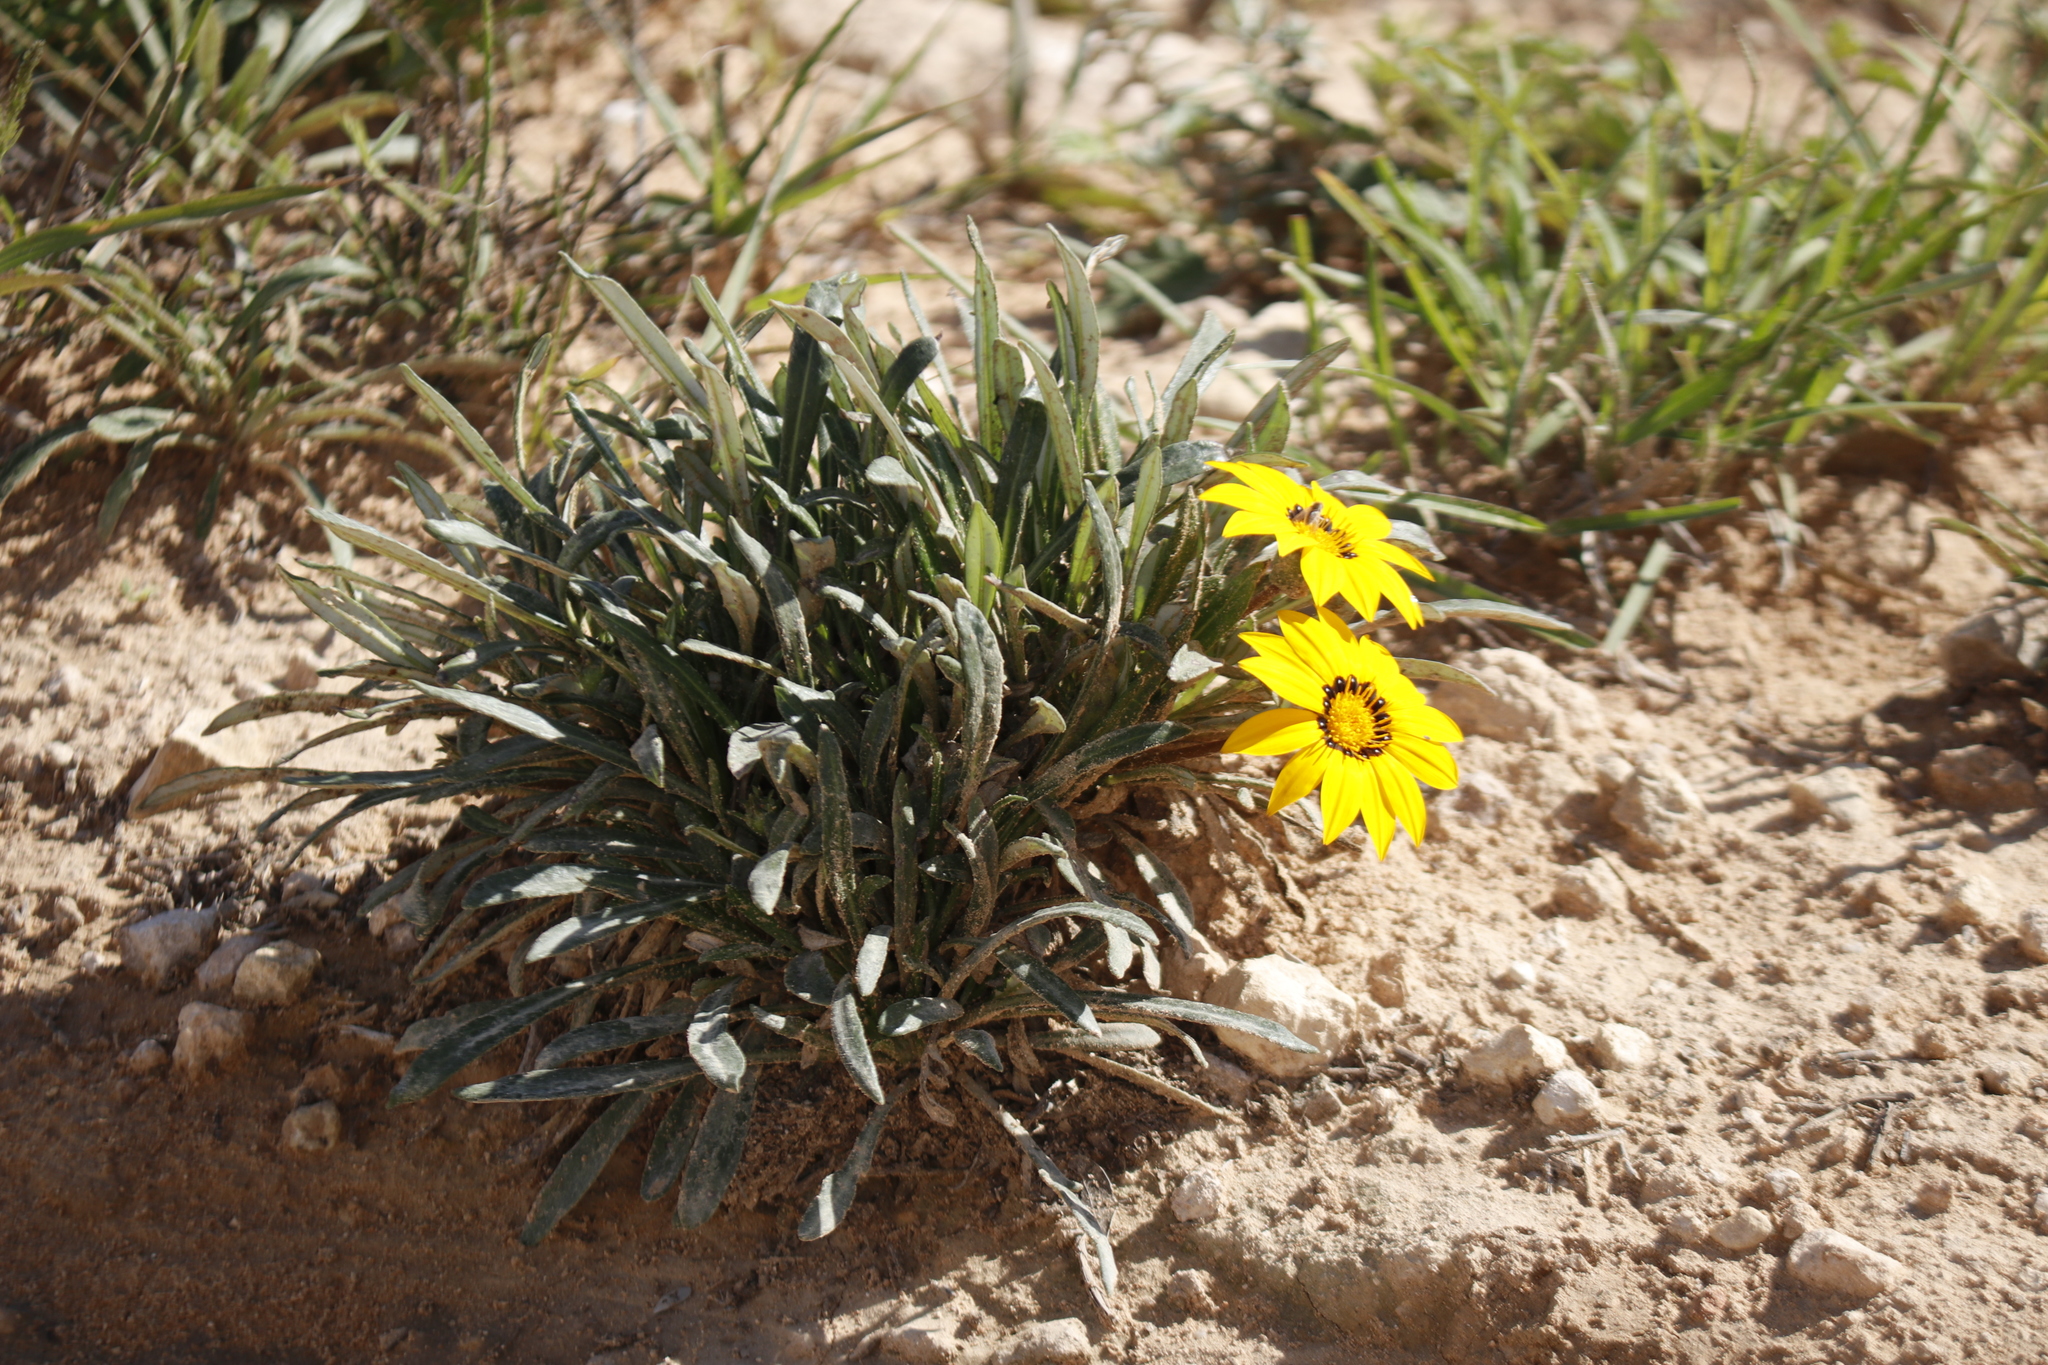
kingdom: Plantae
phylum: Tracheophyta
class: Magnoliopsida
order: Asterales
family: Asteraceae
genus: Gazania
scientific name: Gazania krebsiana
